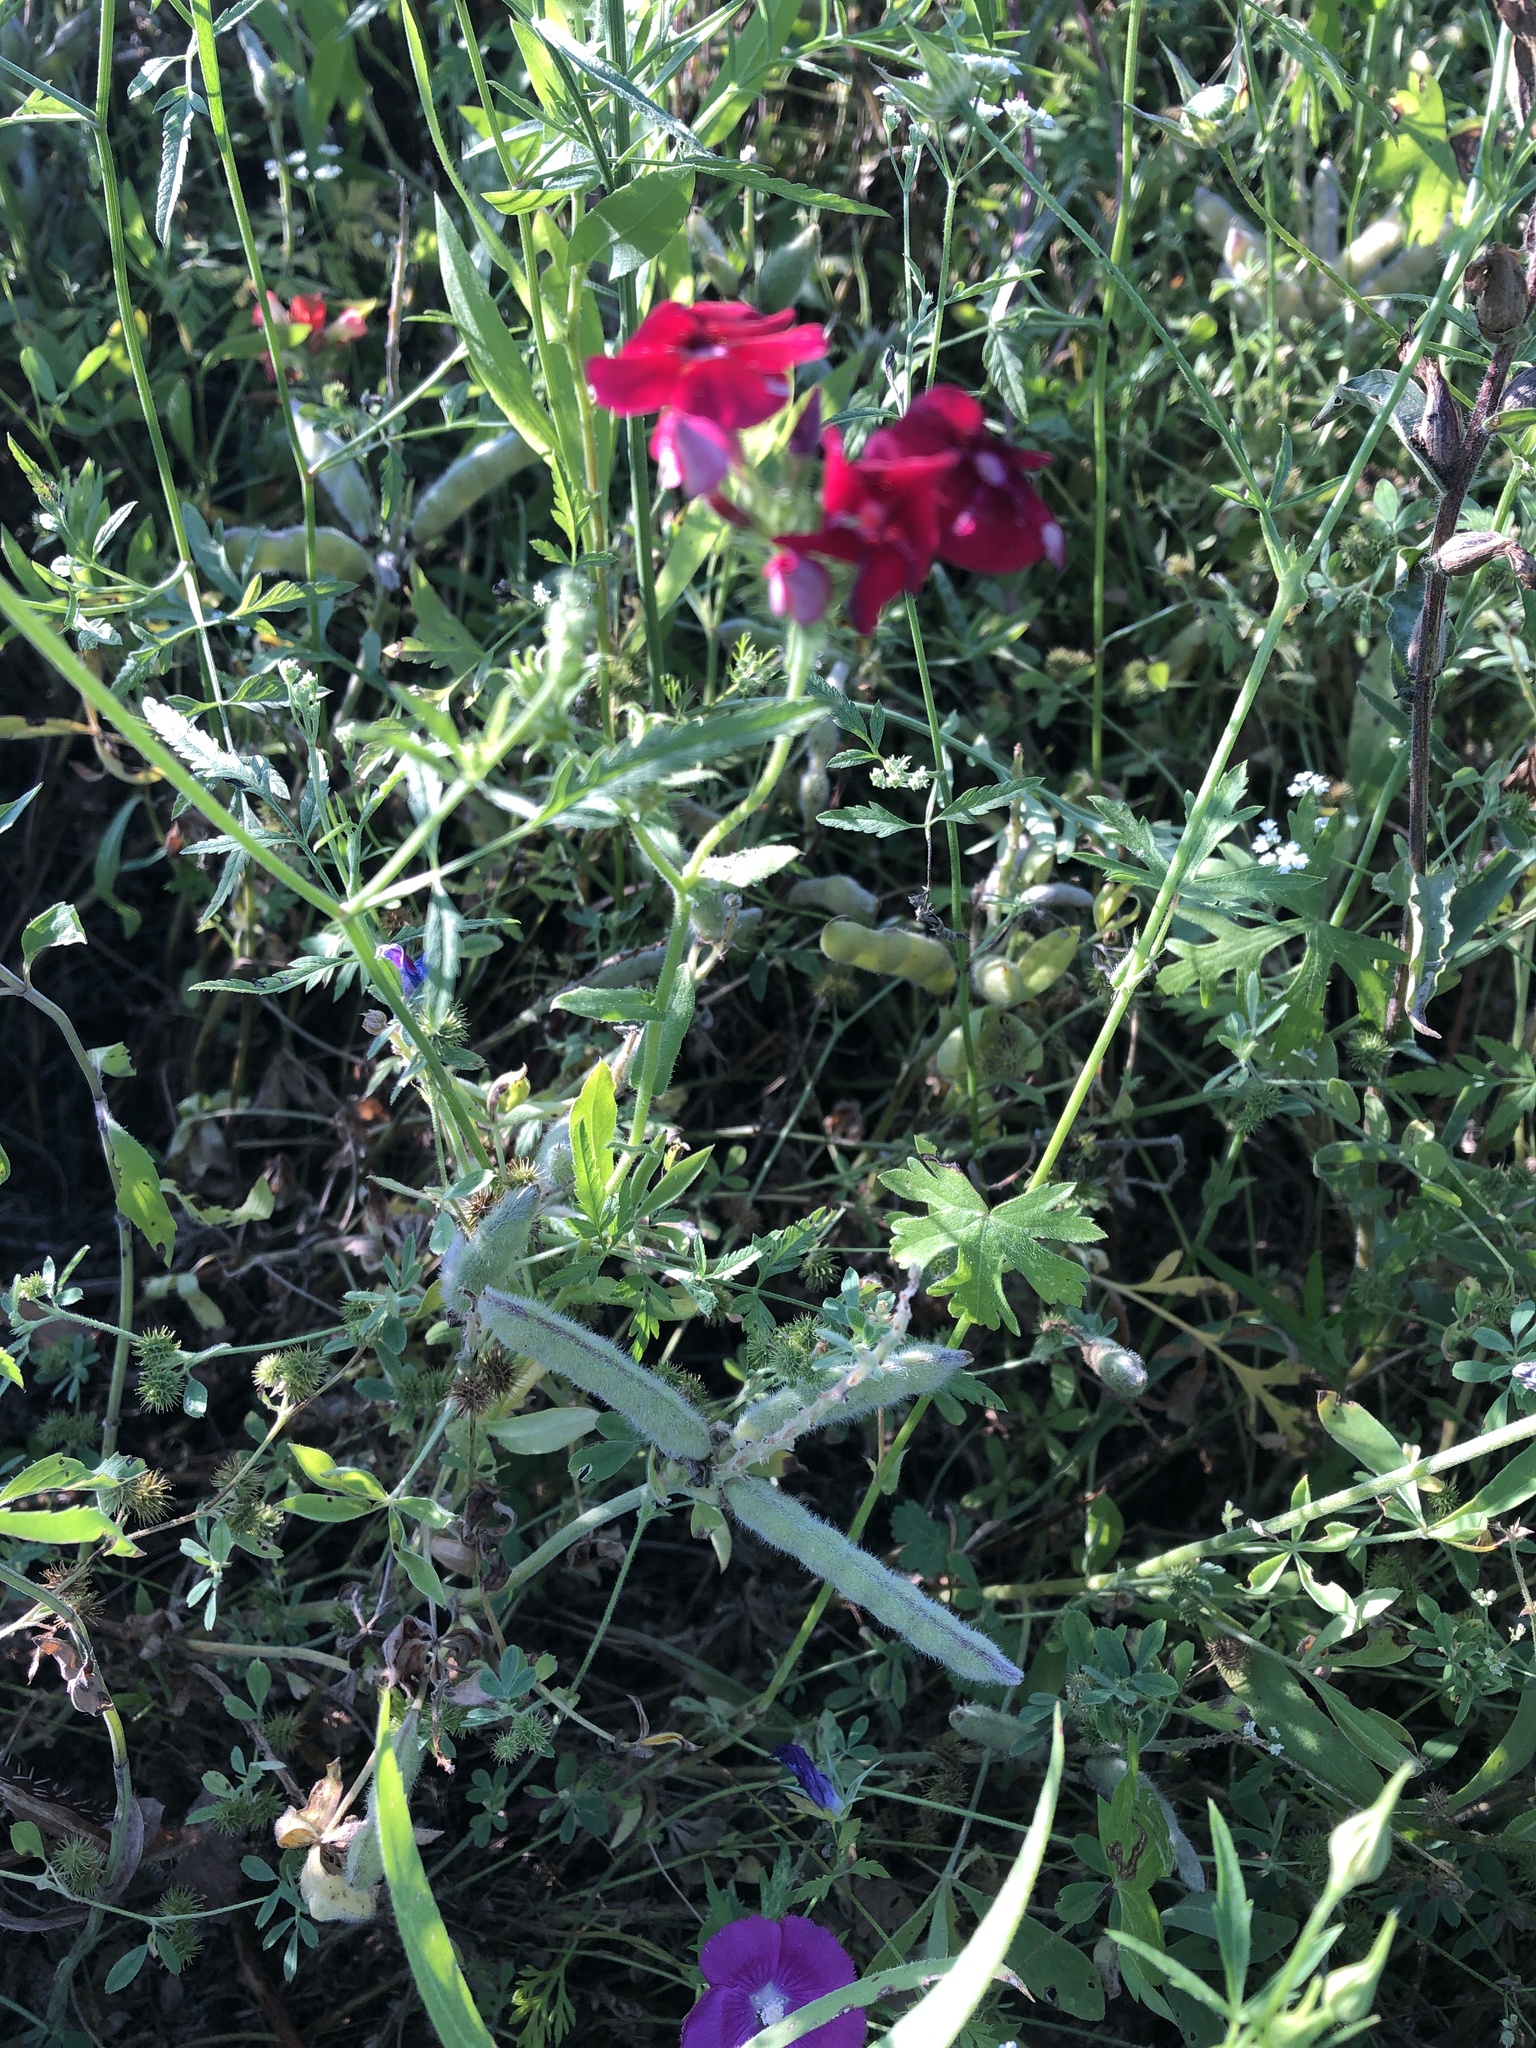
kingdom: Plantae
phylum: Tracheophyta
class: Magnoliopsida
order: Ericales
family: Polemoniaceae
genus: Phlox
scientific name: Phlox drummondii
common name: Drummond's phlox
